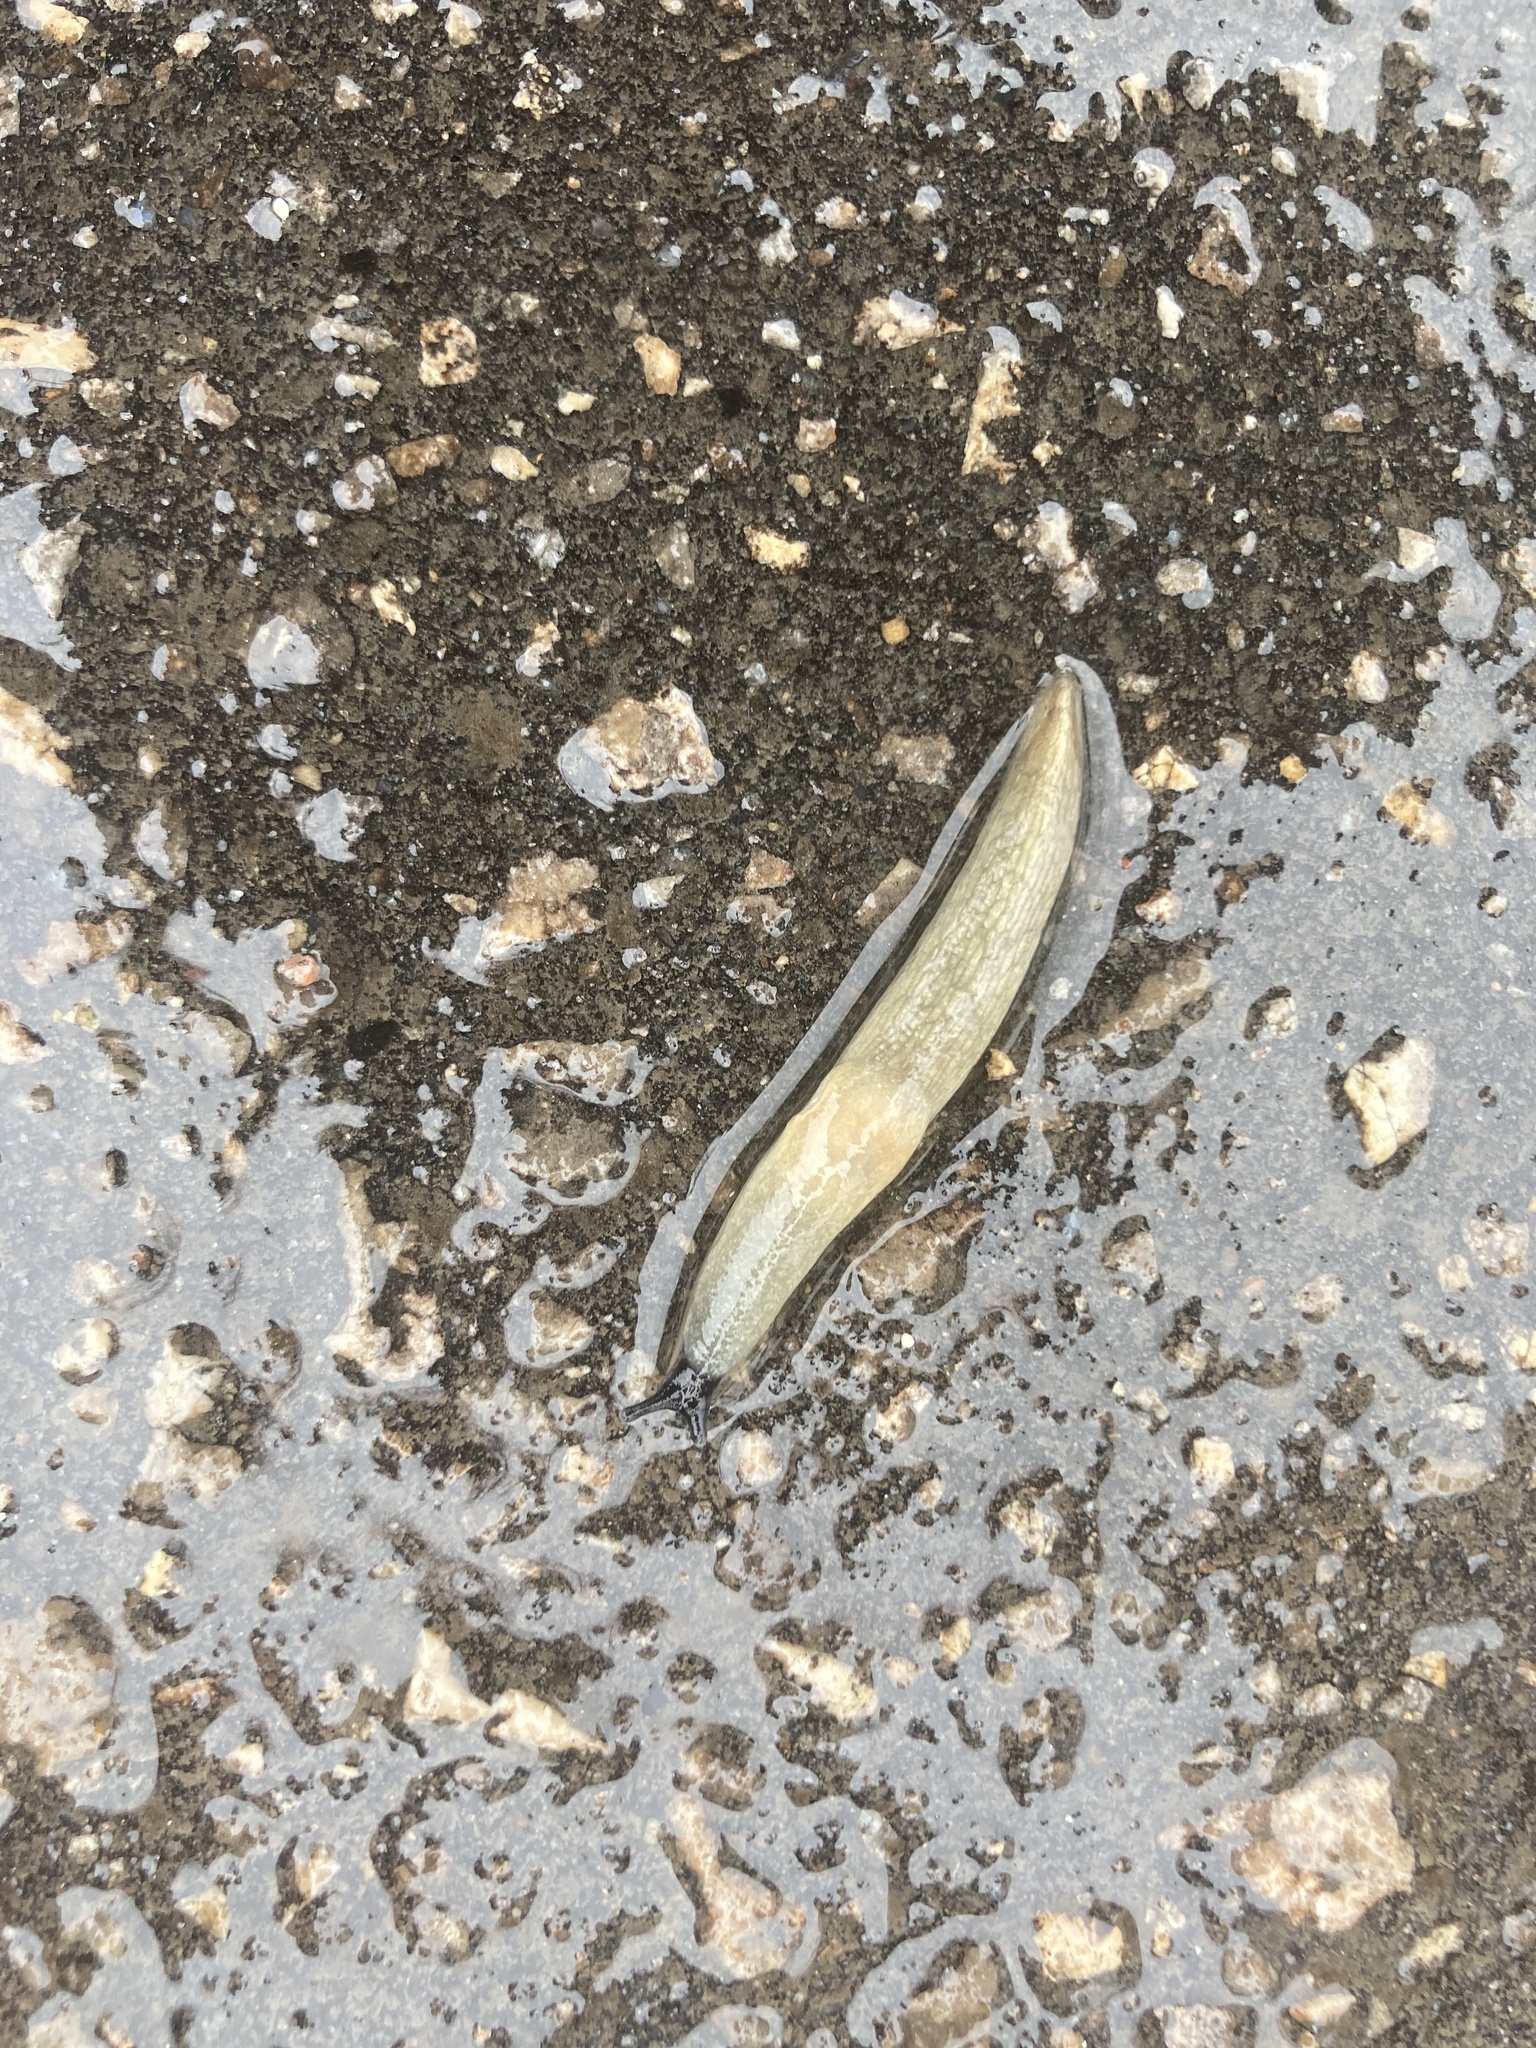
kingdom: Animalia
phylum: Mollusca
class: Gastropoda
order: Stylommatophora
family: Agriolimacidae
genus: Krynickillus
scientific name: Krynickillus melanocephalus
